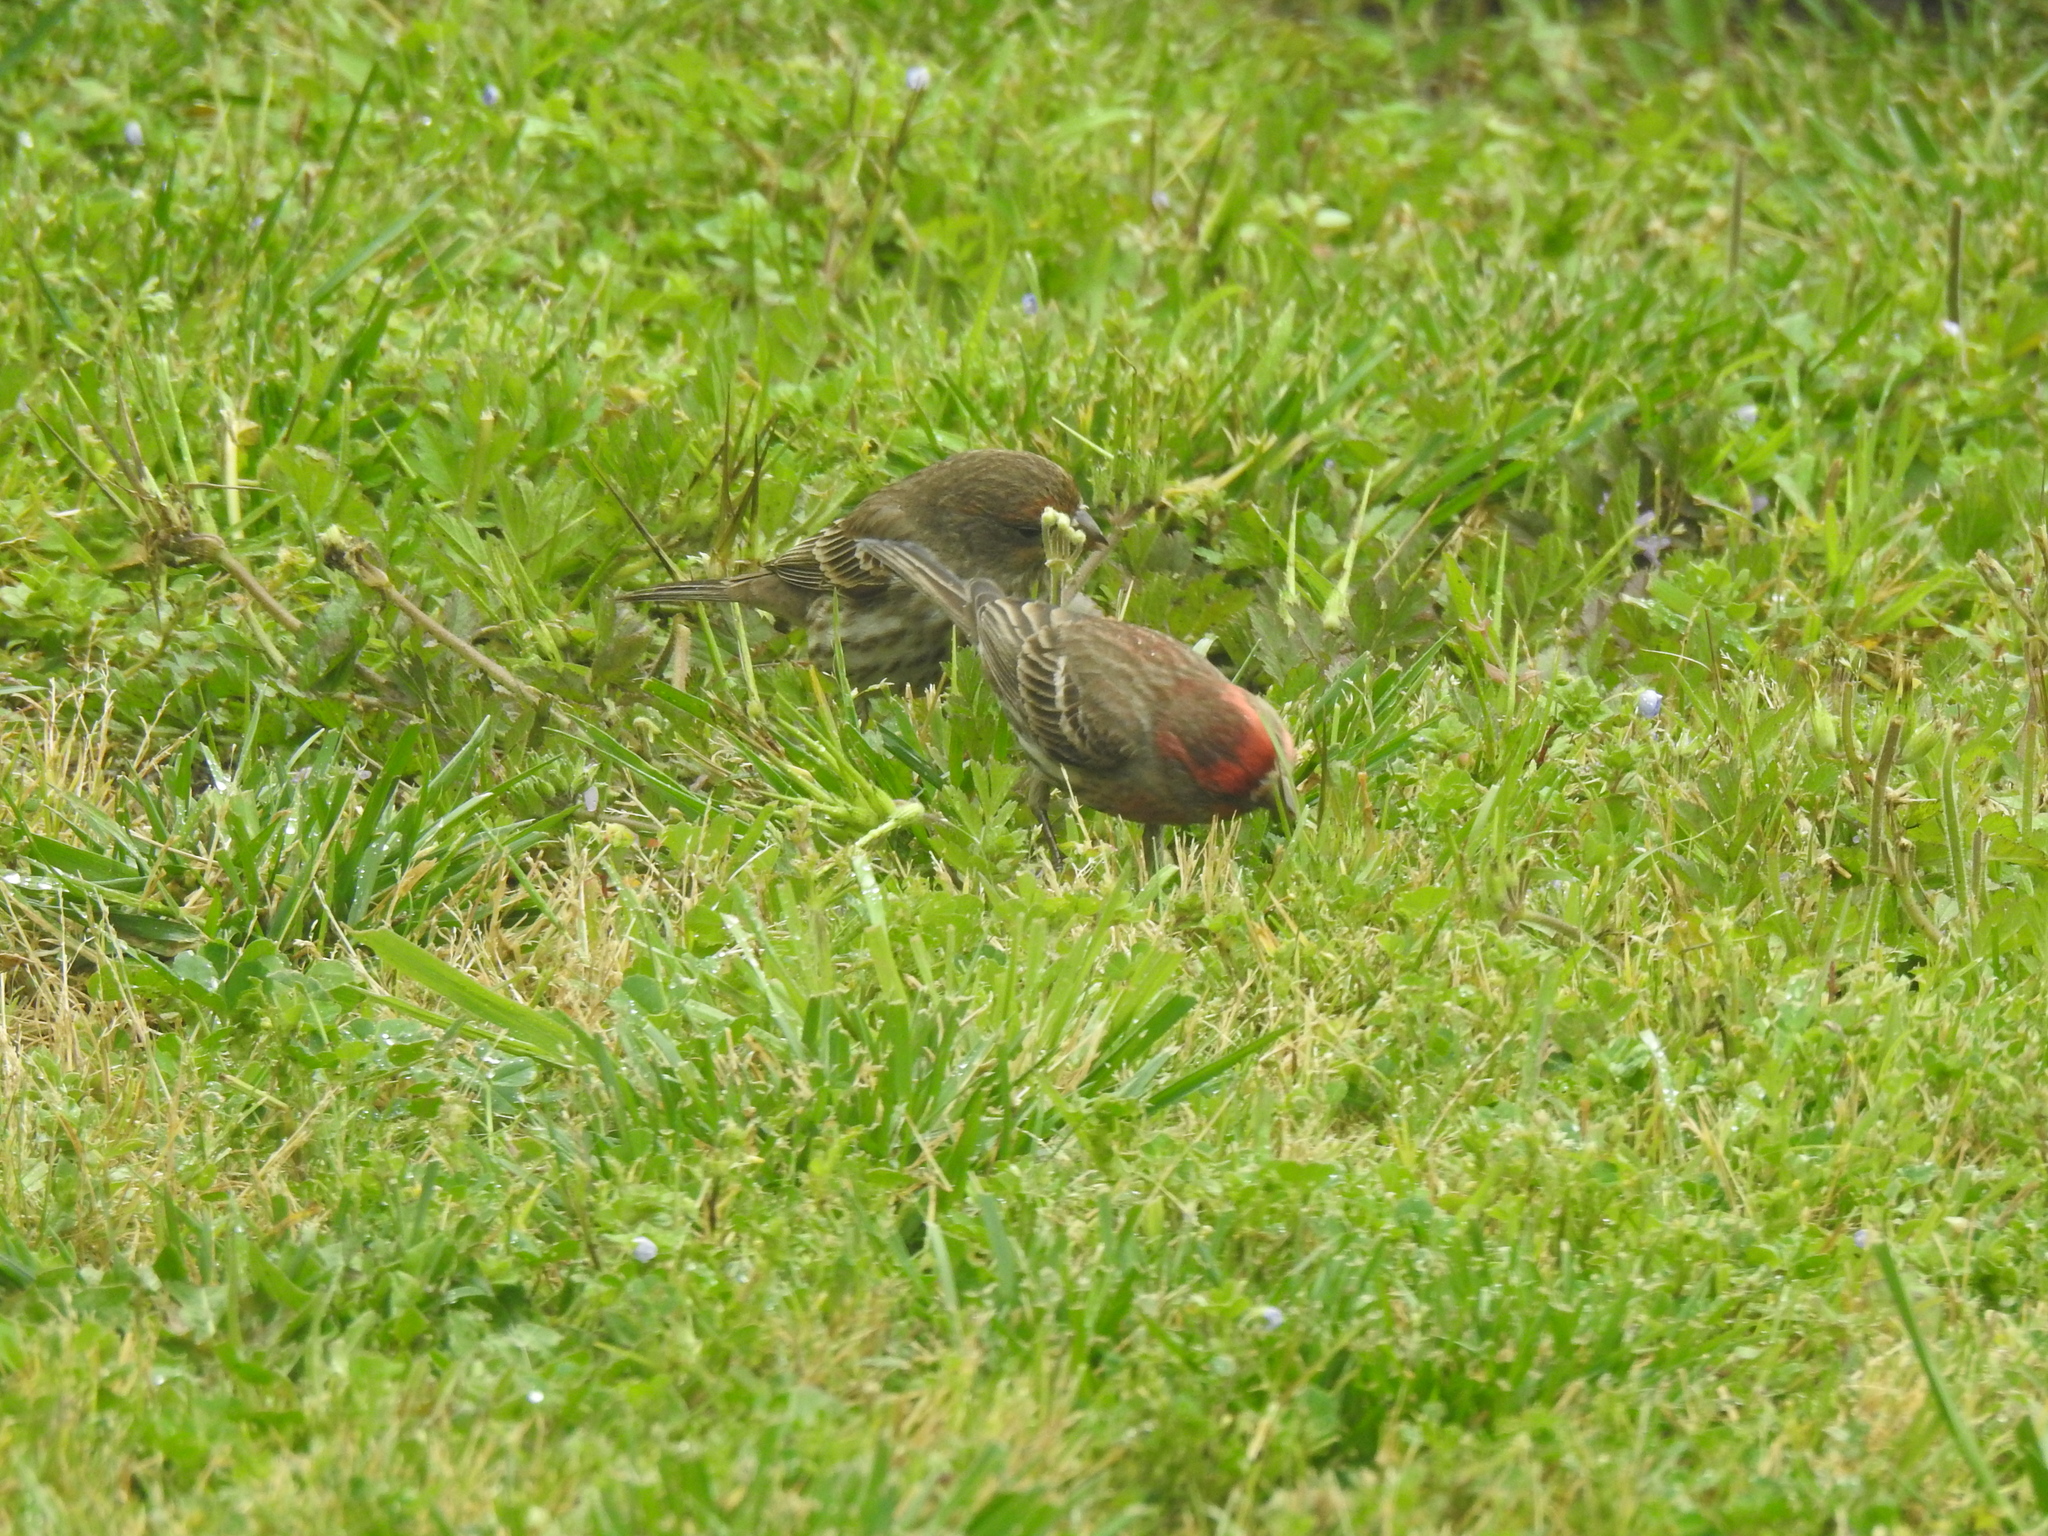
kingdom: Animalia
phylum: Chordata
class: Aves
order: Passeriformes
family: Fringillidae
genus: Haemorhous
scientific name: Haemorhous mexicanus
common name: House finch
